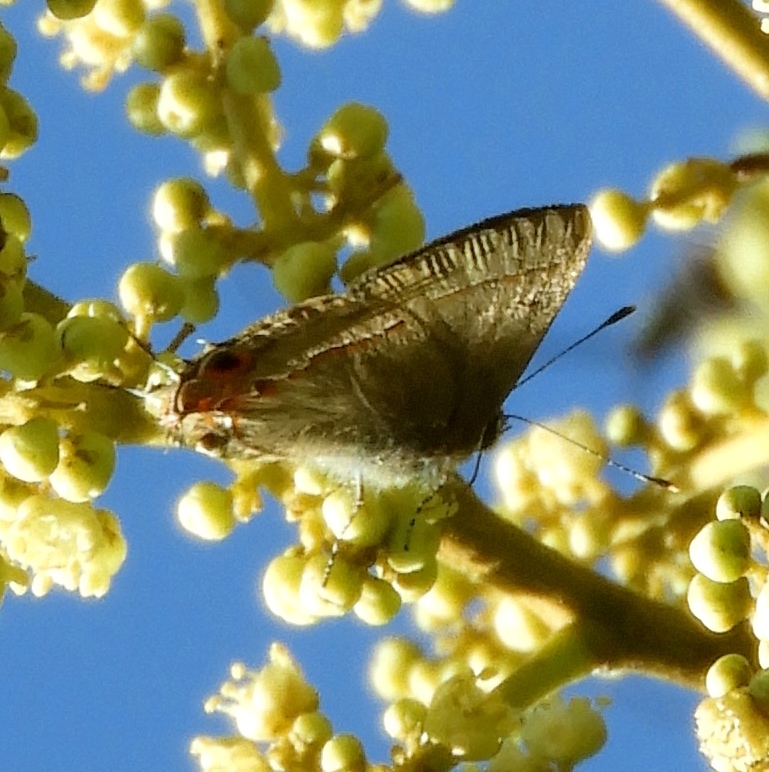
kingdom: Animalia
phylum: Arthropoda
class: Insecta
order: Lepidoptera
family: Lycaenidae
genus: Electrostrymon
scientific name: Electrostrymon
